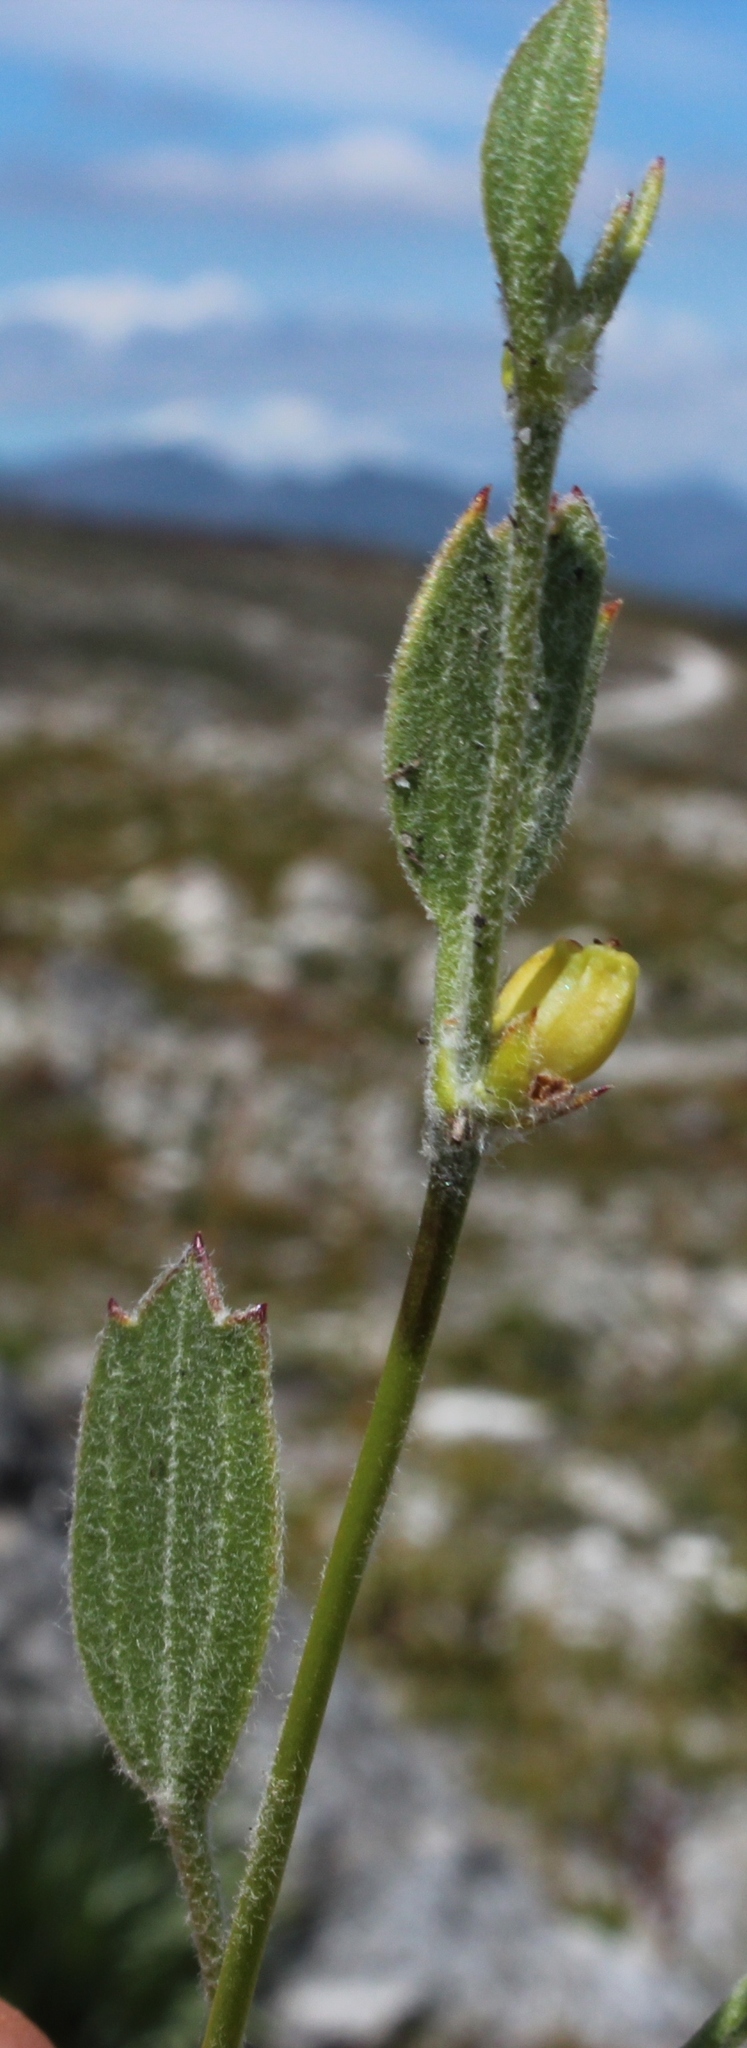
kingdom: Plantae
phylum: Tracheophyta
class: Magnoliopsida
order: Apiales
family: Apiaceae
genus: Centella
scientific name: Centella difformis
